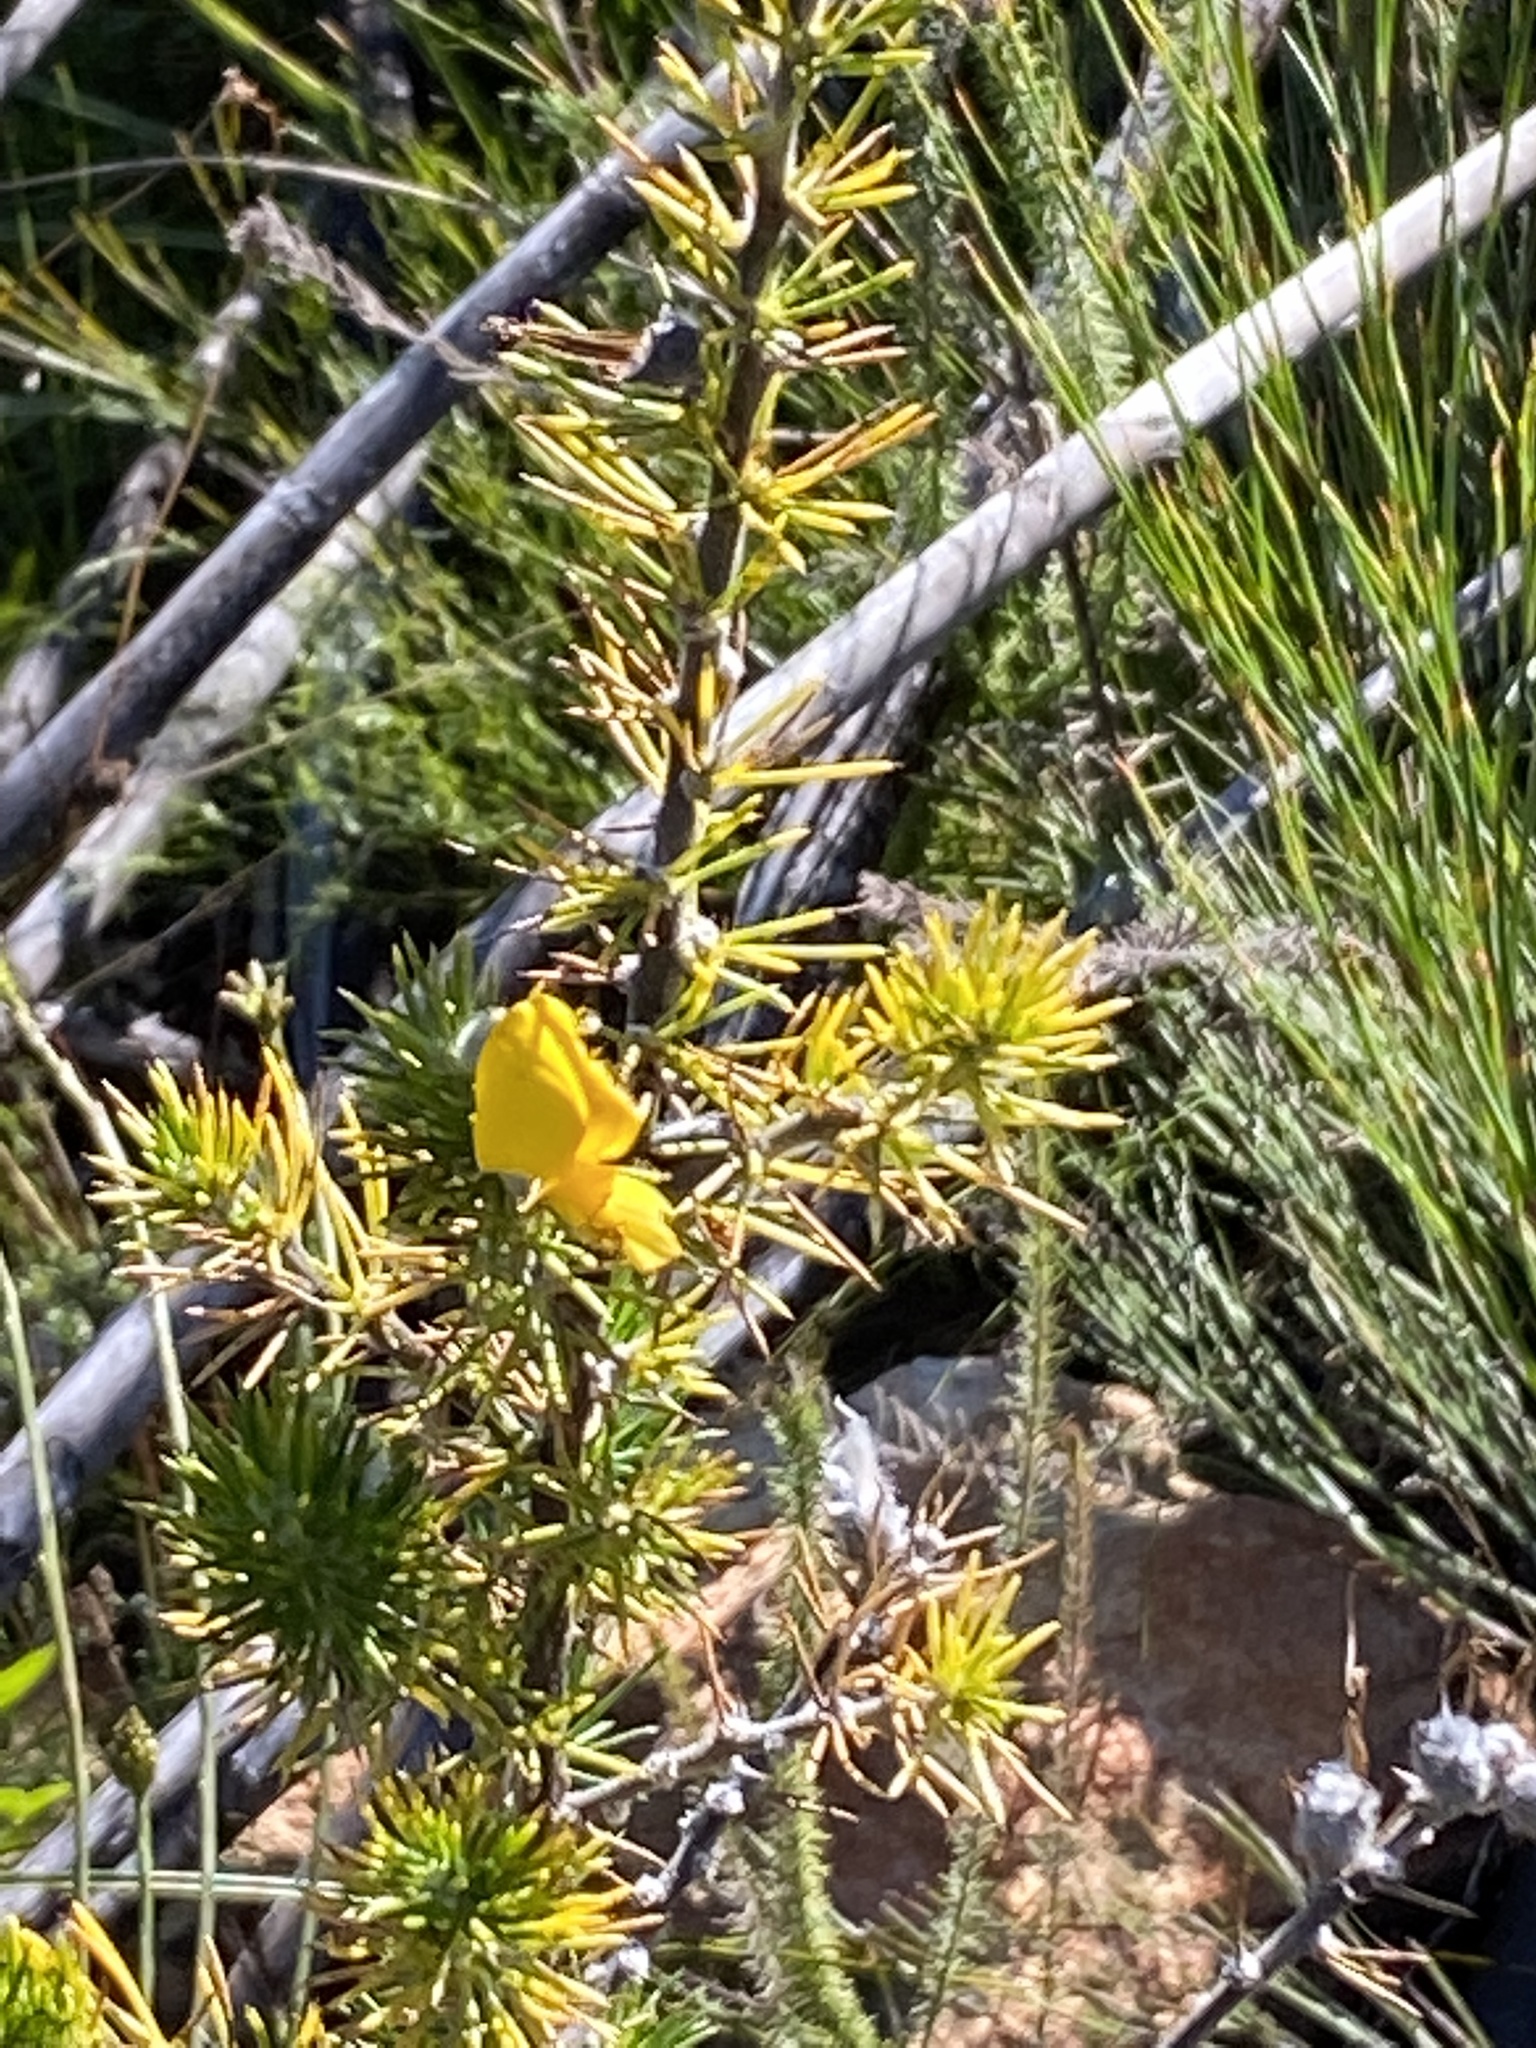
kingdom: Plantae
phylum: Tracheophyta
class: Magnoliopsida
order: Fabales
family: Fabaceae
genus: Aspalathus
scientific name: Aspalathus hirta
